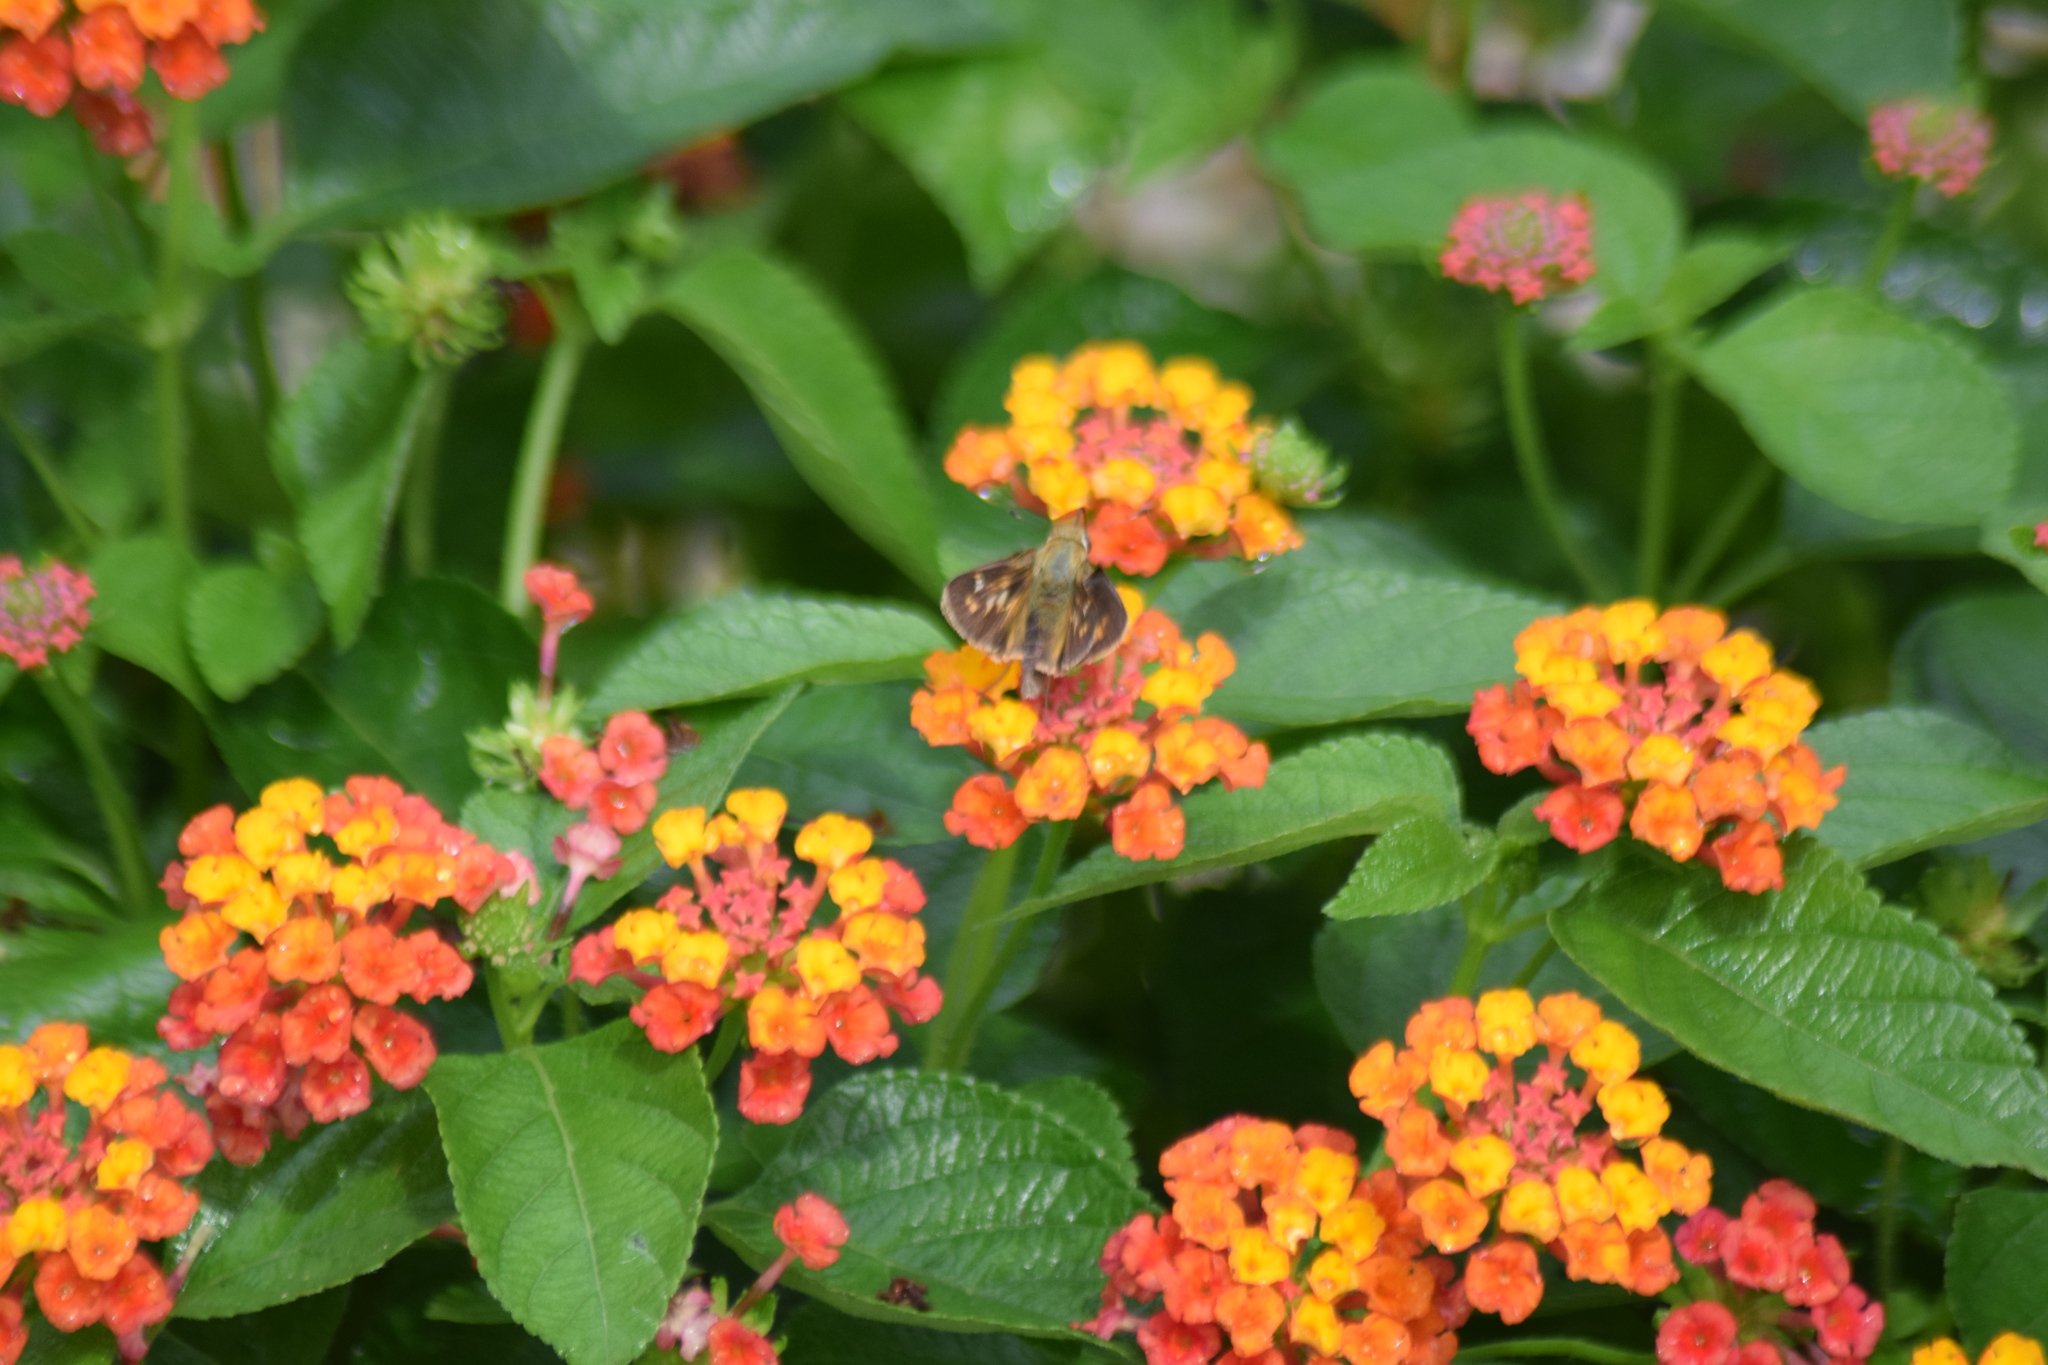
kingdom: Animalia
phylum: Arthropoda
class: Insecta
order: Lepidoptera
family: Hesperiidae
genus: Atalopedes
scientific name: Atalopedes
